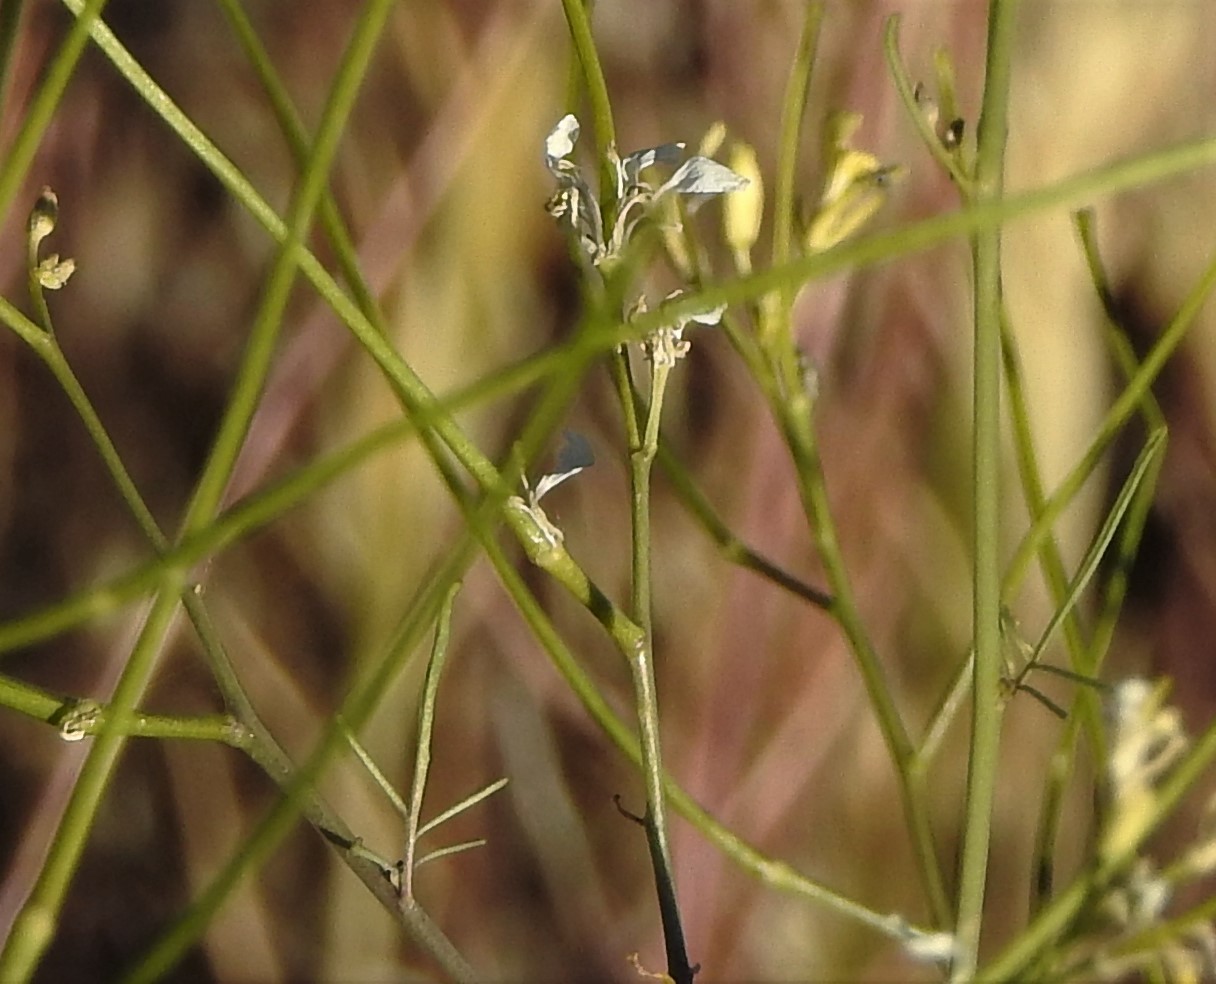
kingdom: Plantae
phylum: Tracheophyta
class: Magnoliopsida
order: Brassicales
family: Brassicaceae
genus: Sisymbrium
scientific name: Sisymbrium altissimum
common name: Tall rocket
